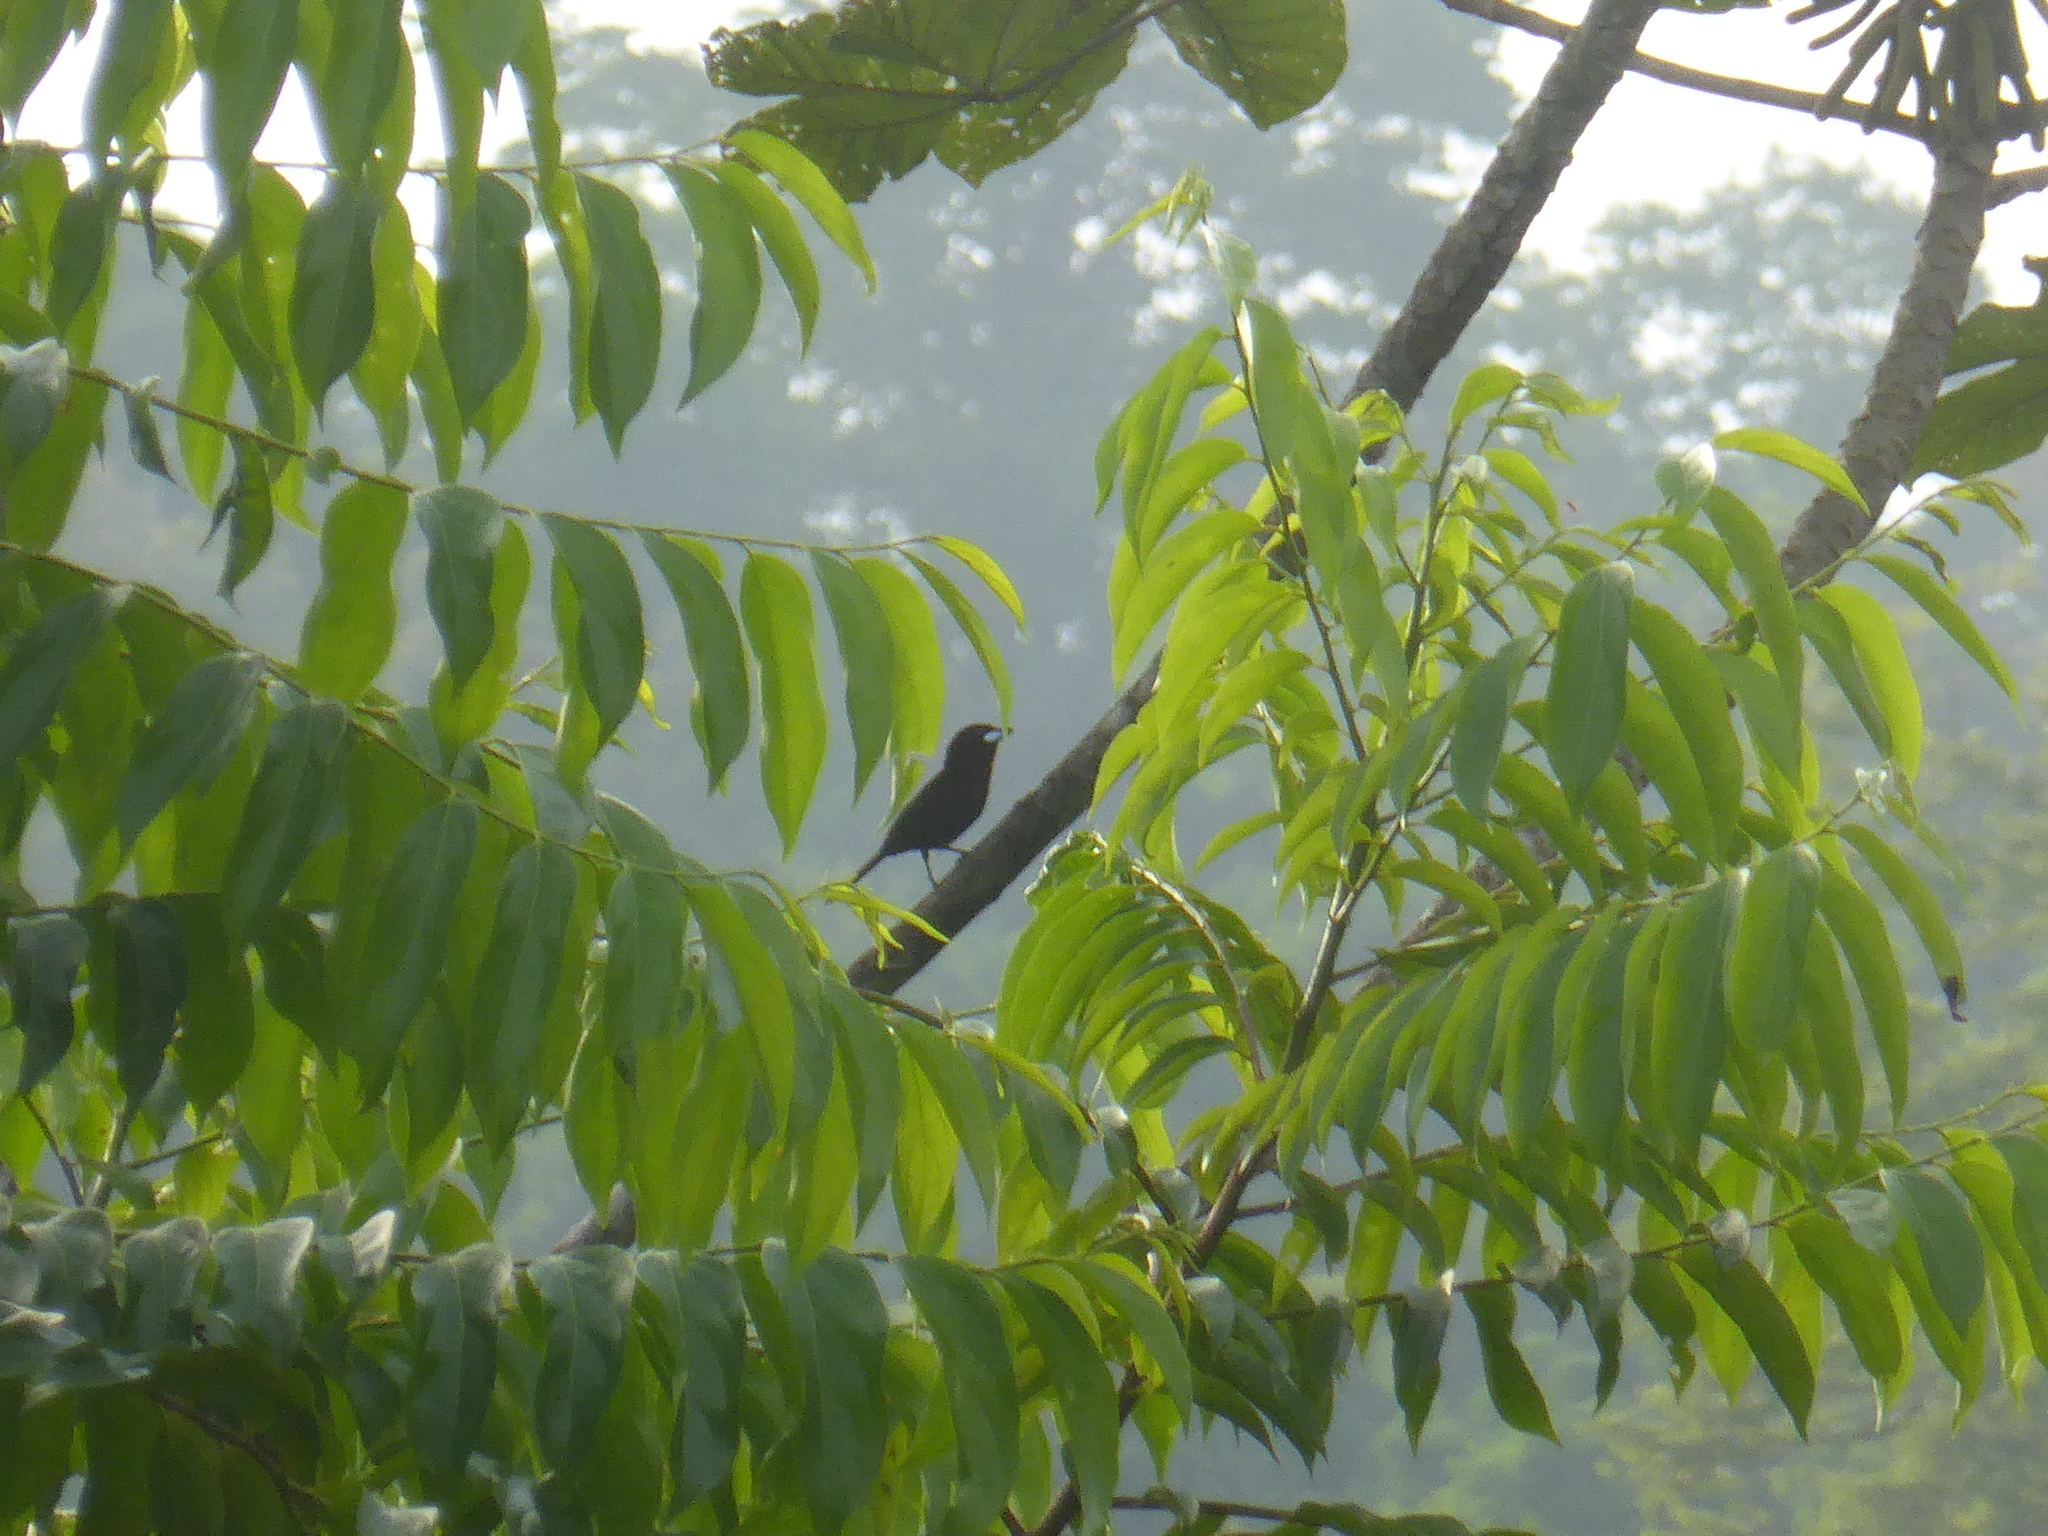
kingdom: Animalia
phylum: Chordata
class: Aves
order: Passeriformes
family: Thraupidae
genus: Ramphocelus
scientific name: Ramphocelus carbo
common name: Silver-beaked tanager
